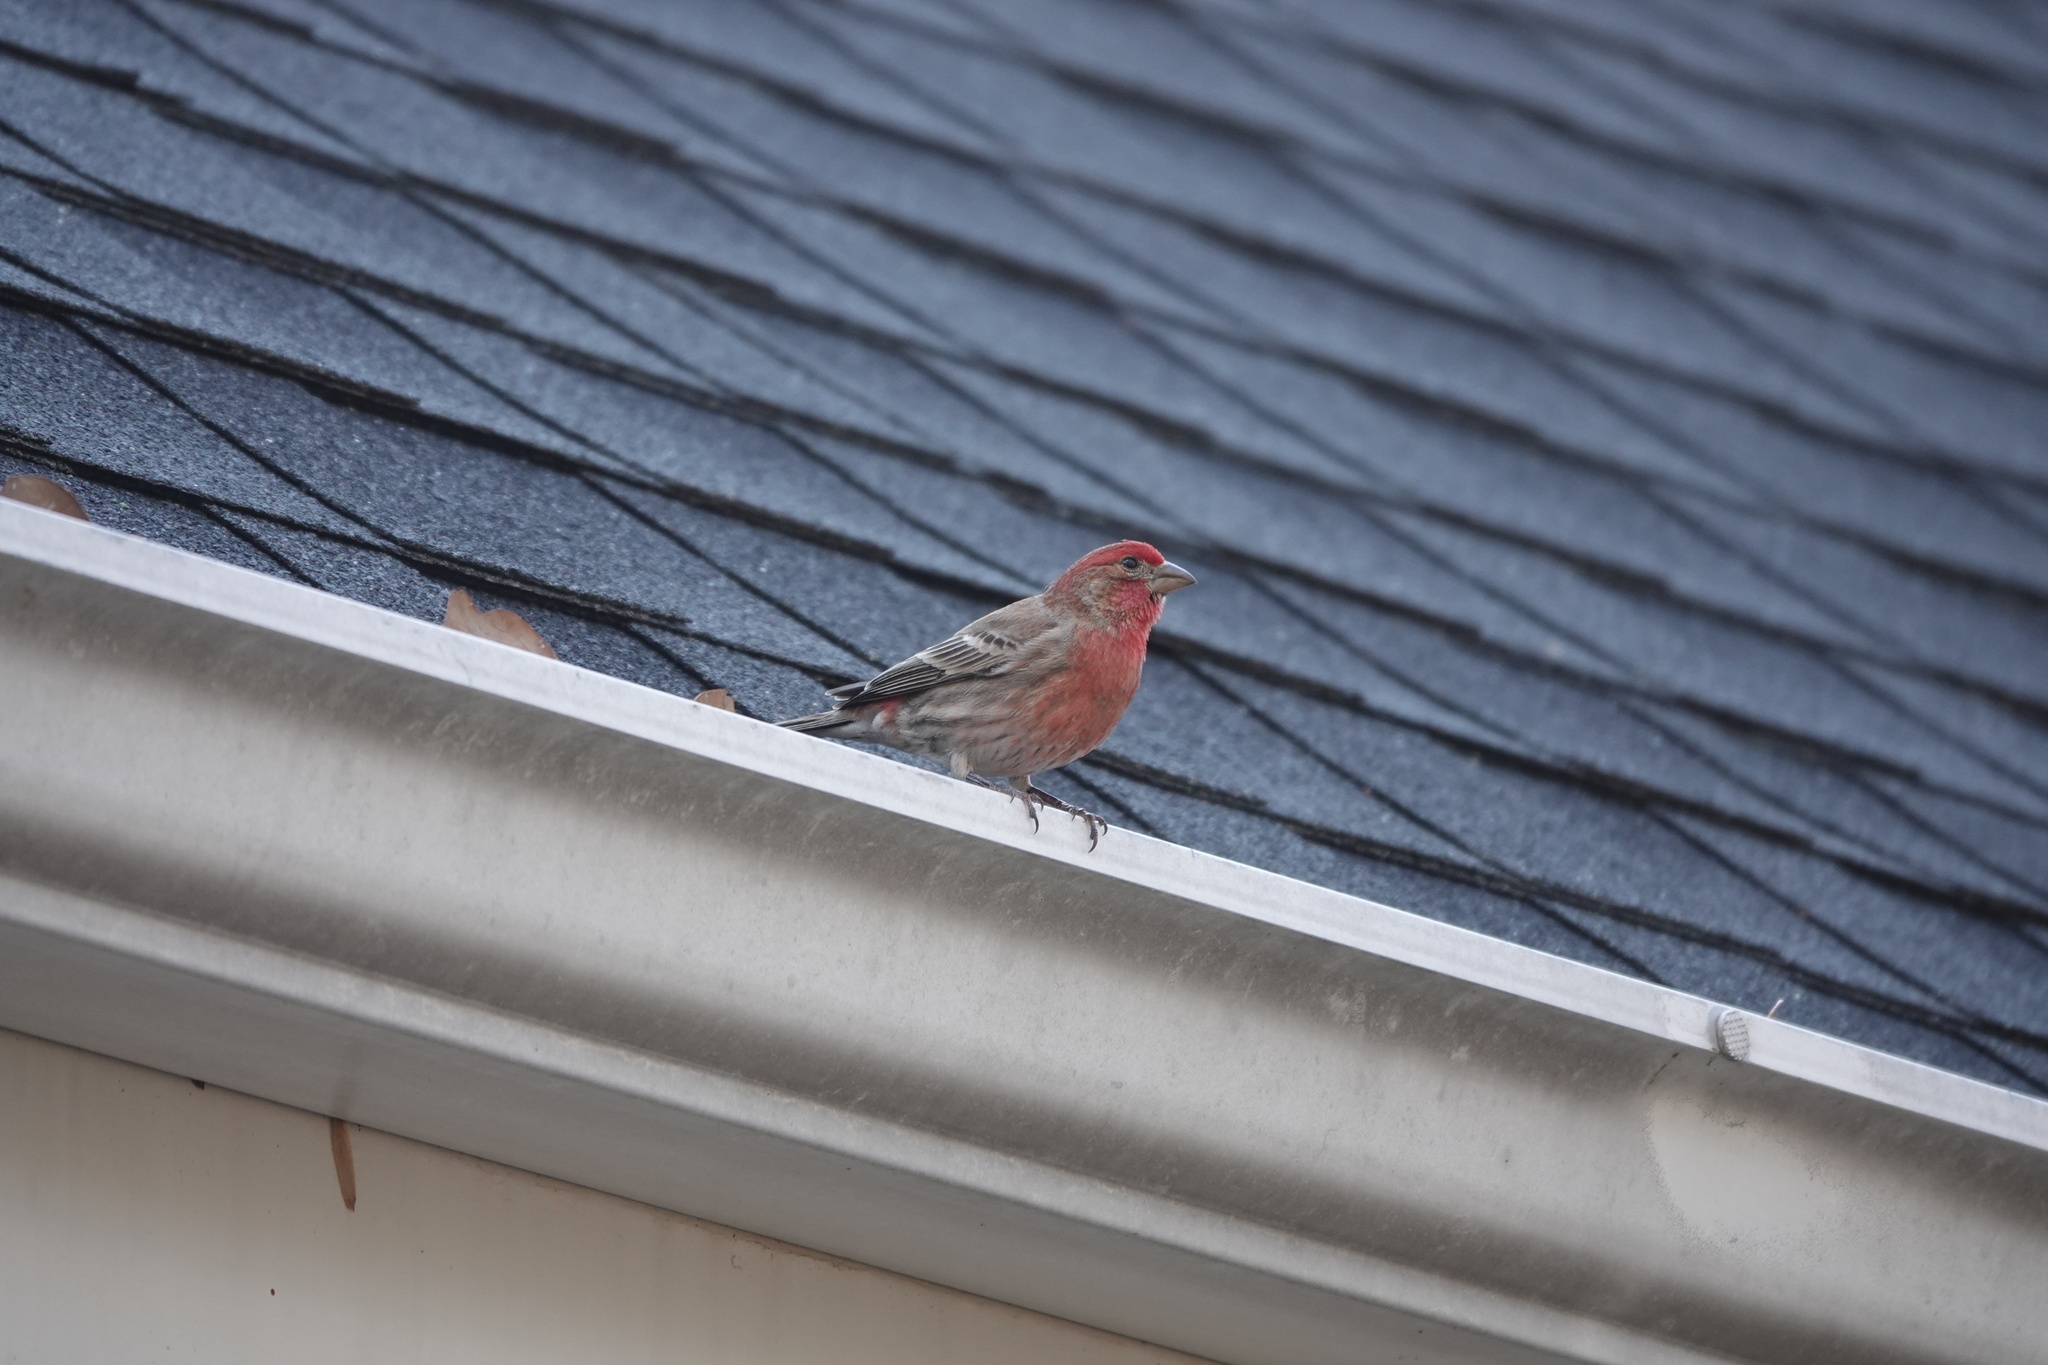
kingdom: Animalia
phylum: Chordata
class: Aves
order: Passeriformes
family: Fringillidae
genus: Haemorhous
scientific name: Haemorhous mexicanus
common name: House finch
